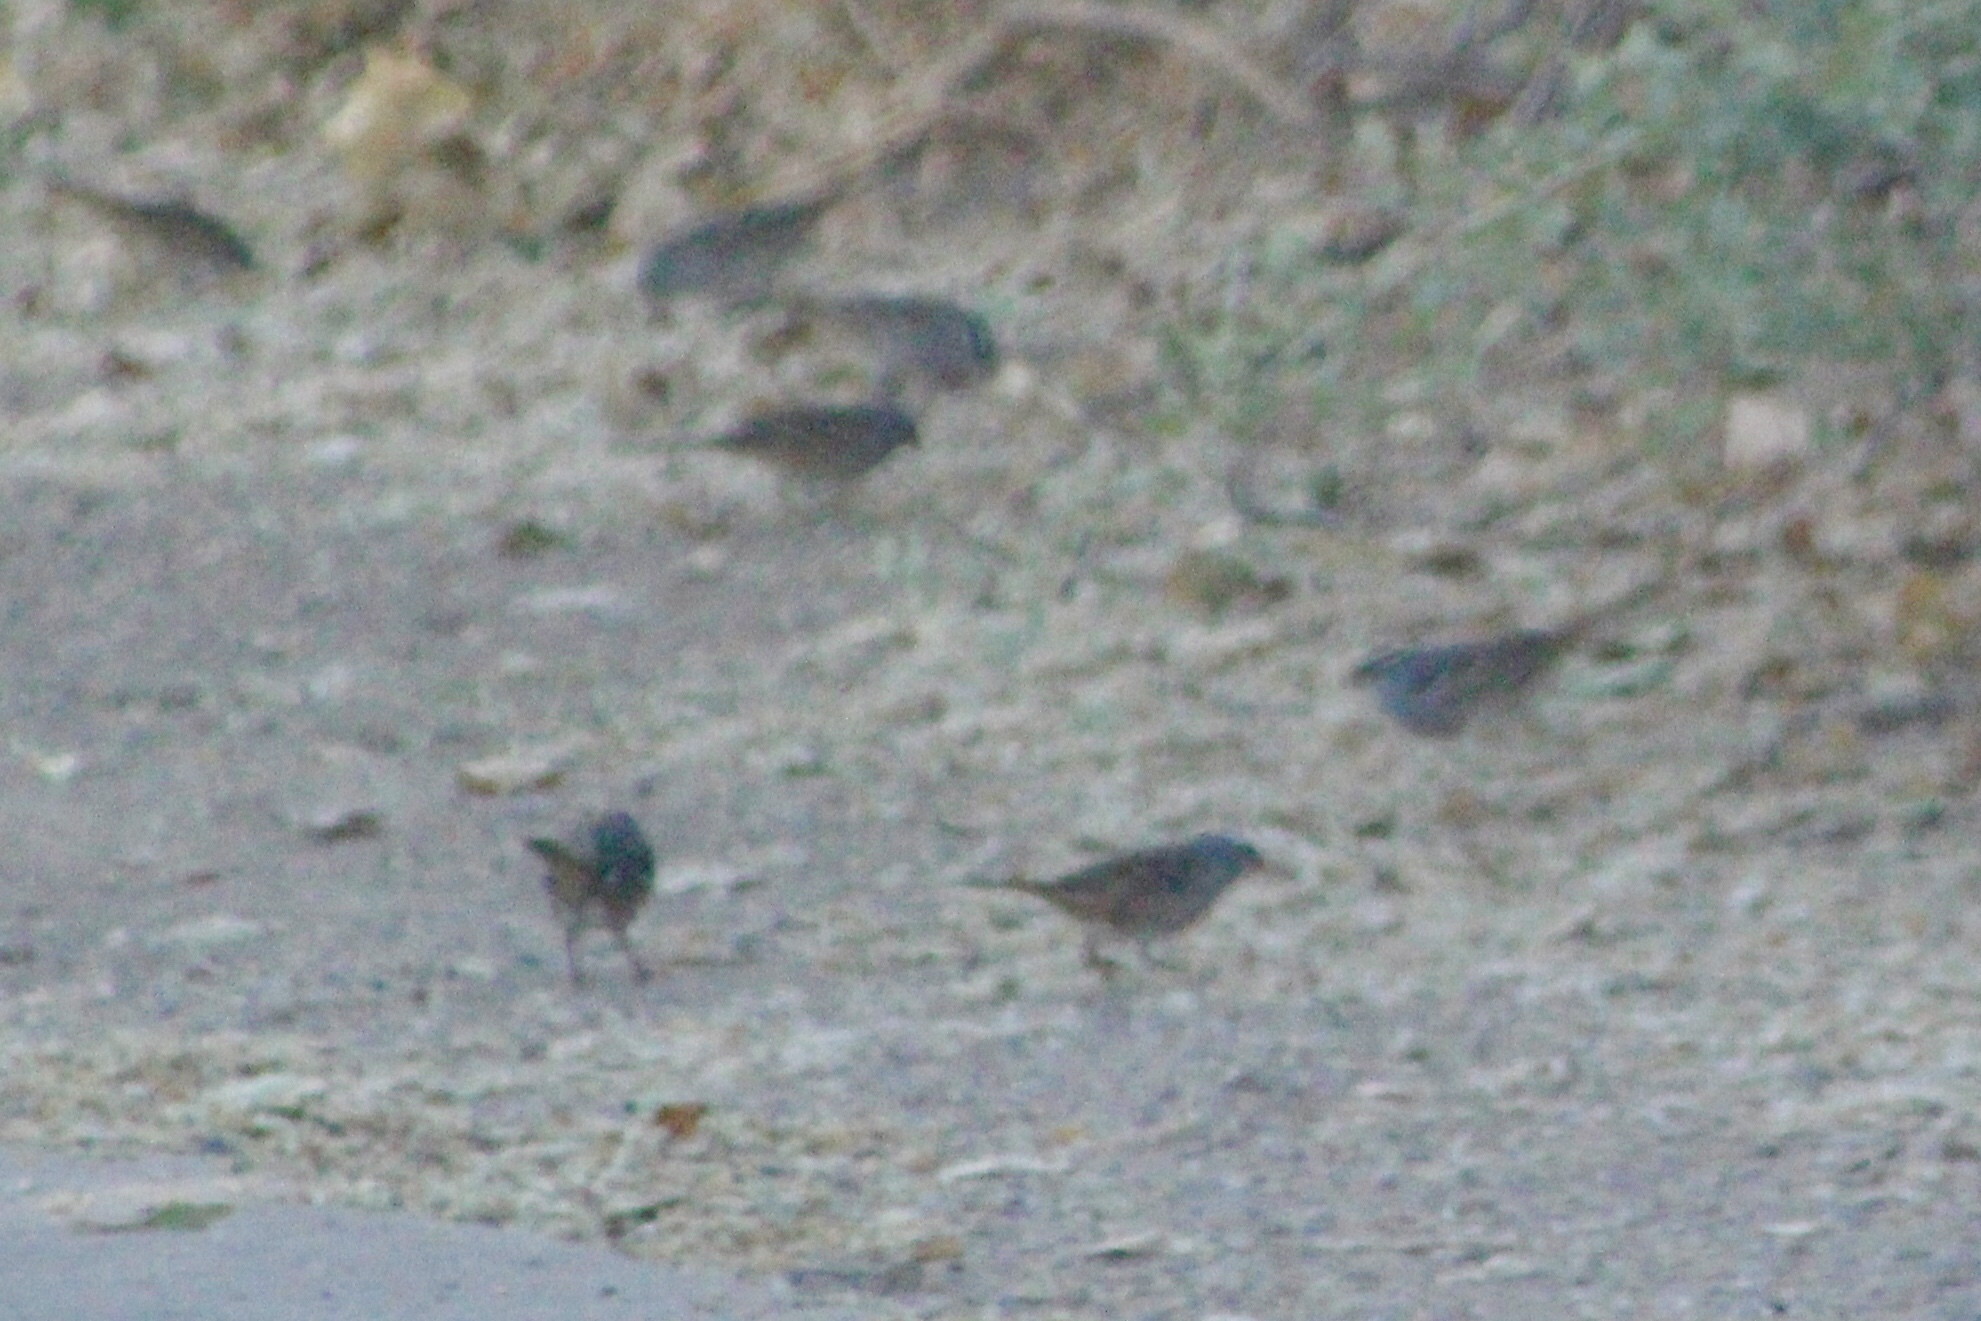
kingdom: Animalia
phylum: Chordata
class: Aves
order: Passeriformes
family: Passerellidae
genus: Zonotrichia
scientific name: Zonotrichia leucophrys
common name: White-crowned sparrow
